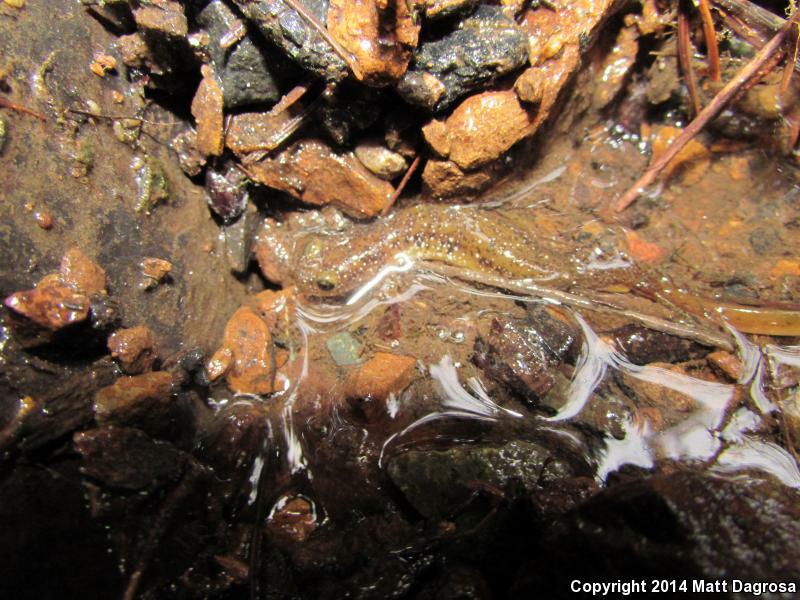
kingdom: Animalia
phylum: Chordata
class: Amphibia
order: Caudata
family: Rhyacotritonidae
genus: Rhyacotriton
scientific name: Rhyacotriton cascadae
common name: Cascade torrent salamander
